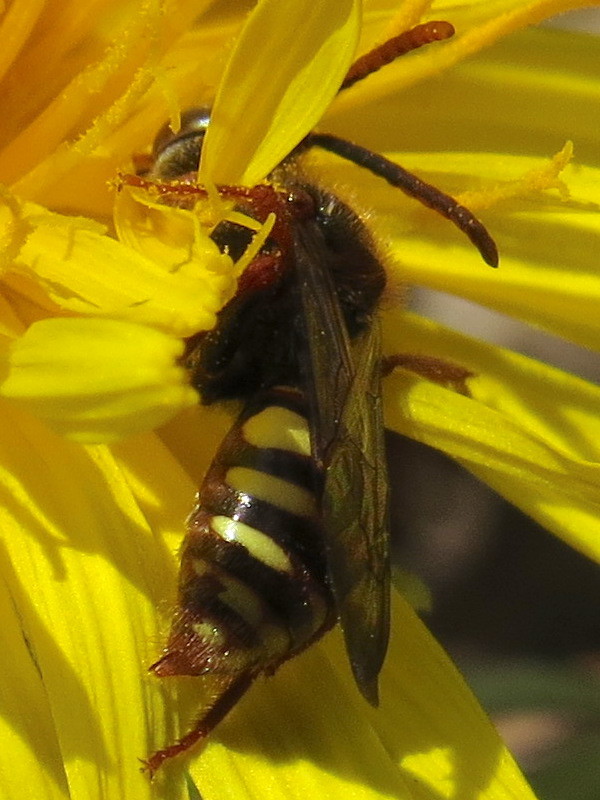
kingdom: Animalia
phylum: Arthropoda
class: Insecta
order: Hymenoptera
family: Apidae
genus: Nomada
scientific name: Nomada
